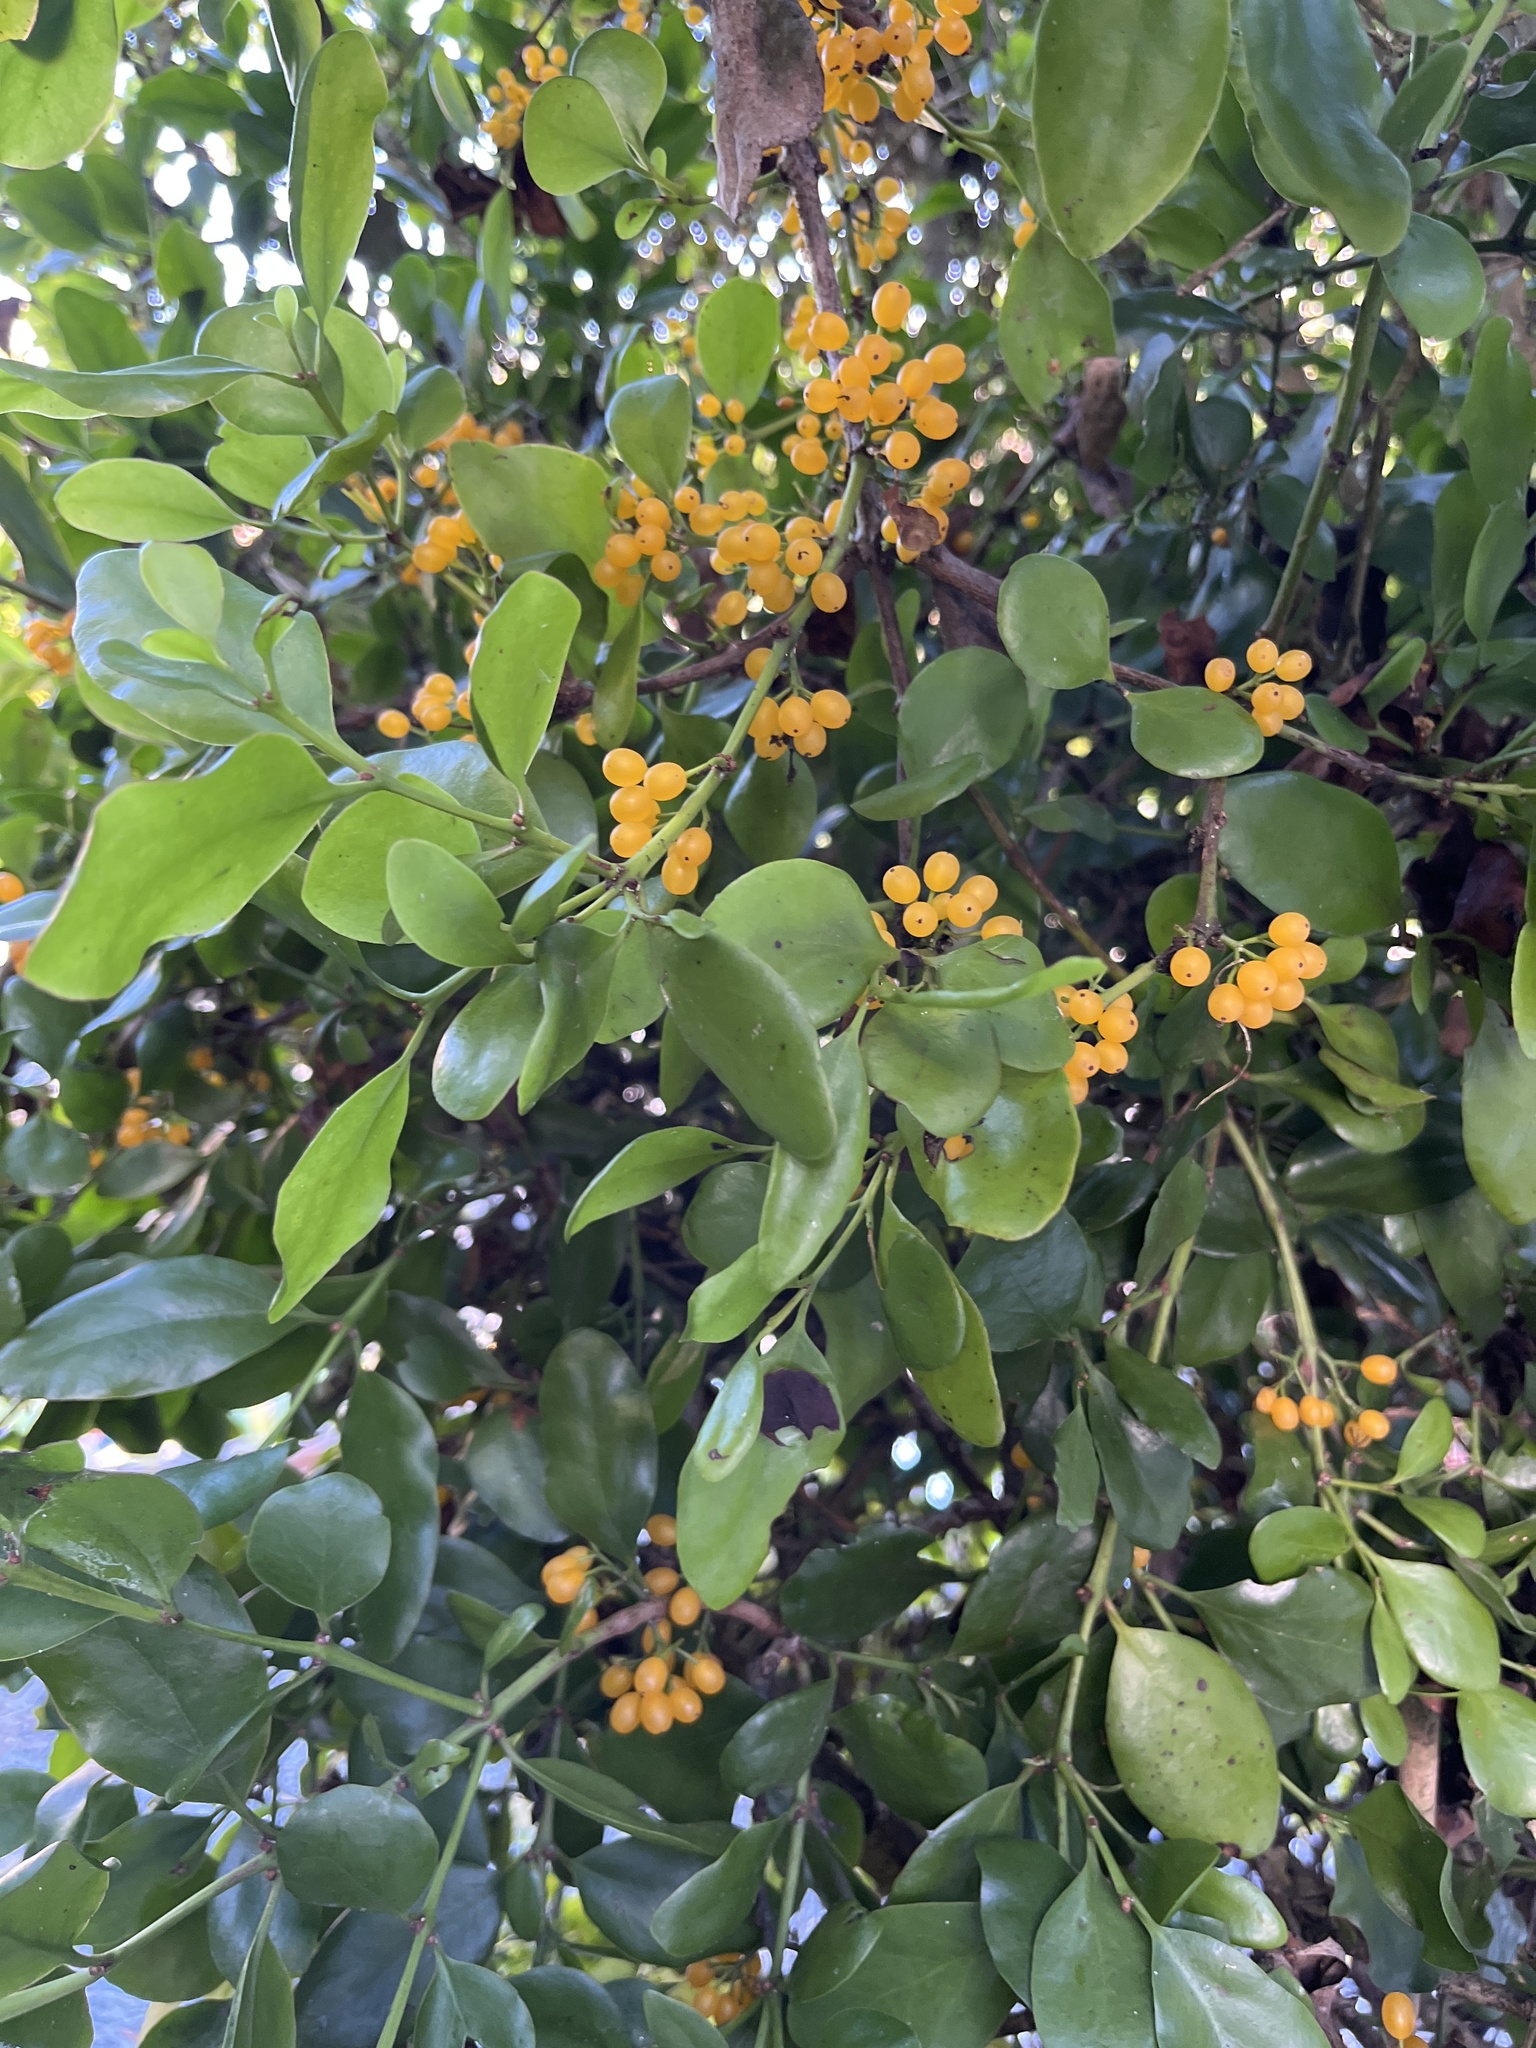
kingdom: Plantae
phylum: Tracheophyta
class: Magnoliopsida
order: Santalales
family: Loranthaceae
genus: Ileostylus
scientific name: Ileostylus micranthus
